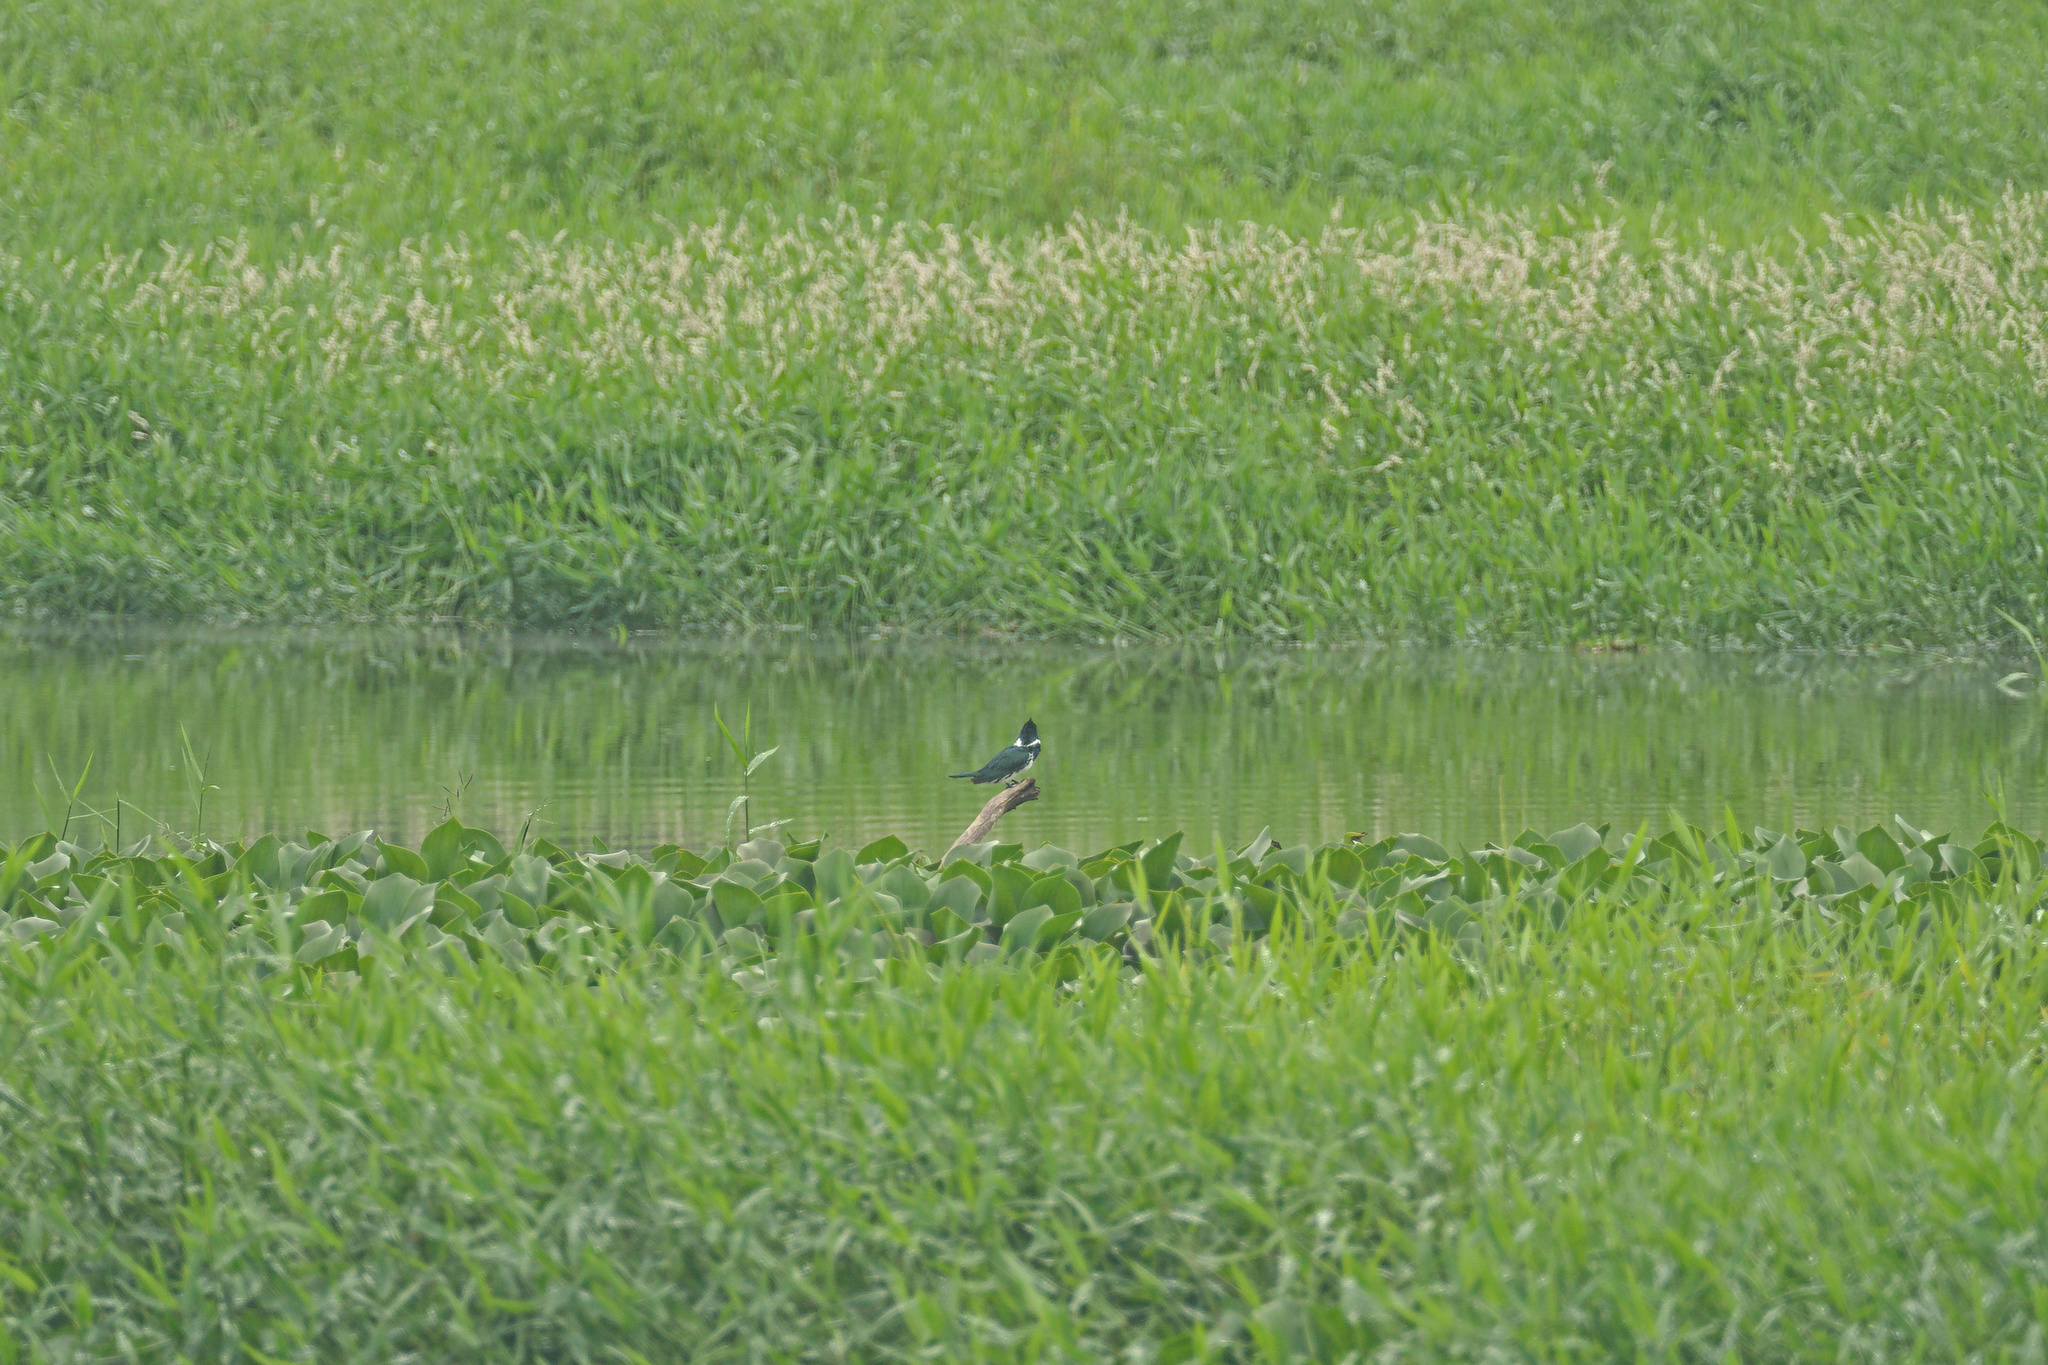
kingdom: Animalia
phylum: Chordata
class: Aves
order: Coraciiformes
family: Alcedinidae
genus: Chloroceryle
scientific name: Chloroceryle amazona
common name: Amazon kingfisher
